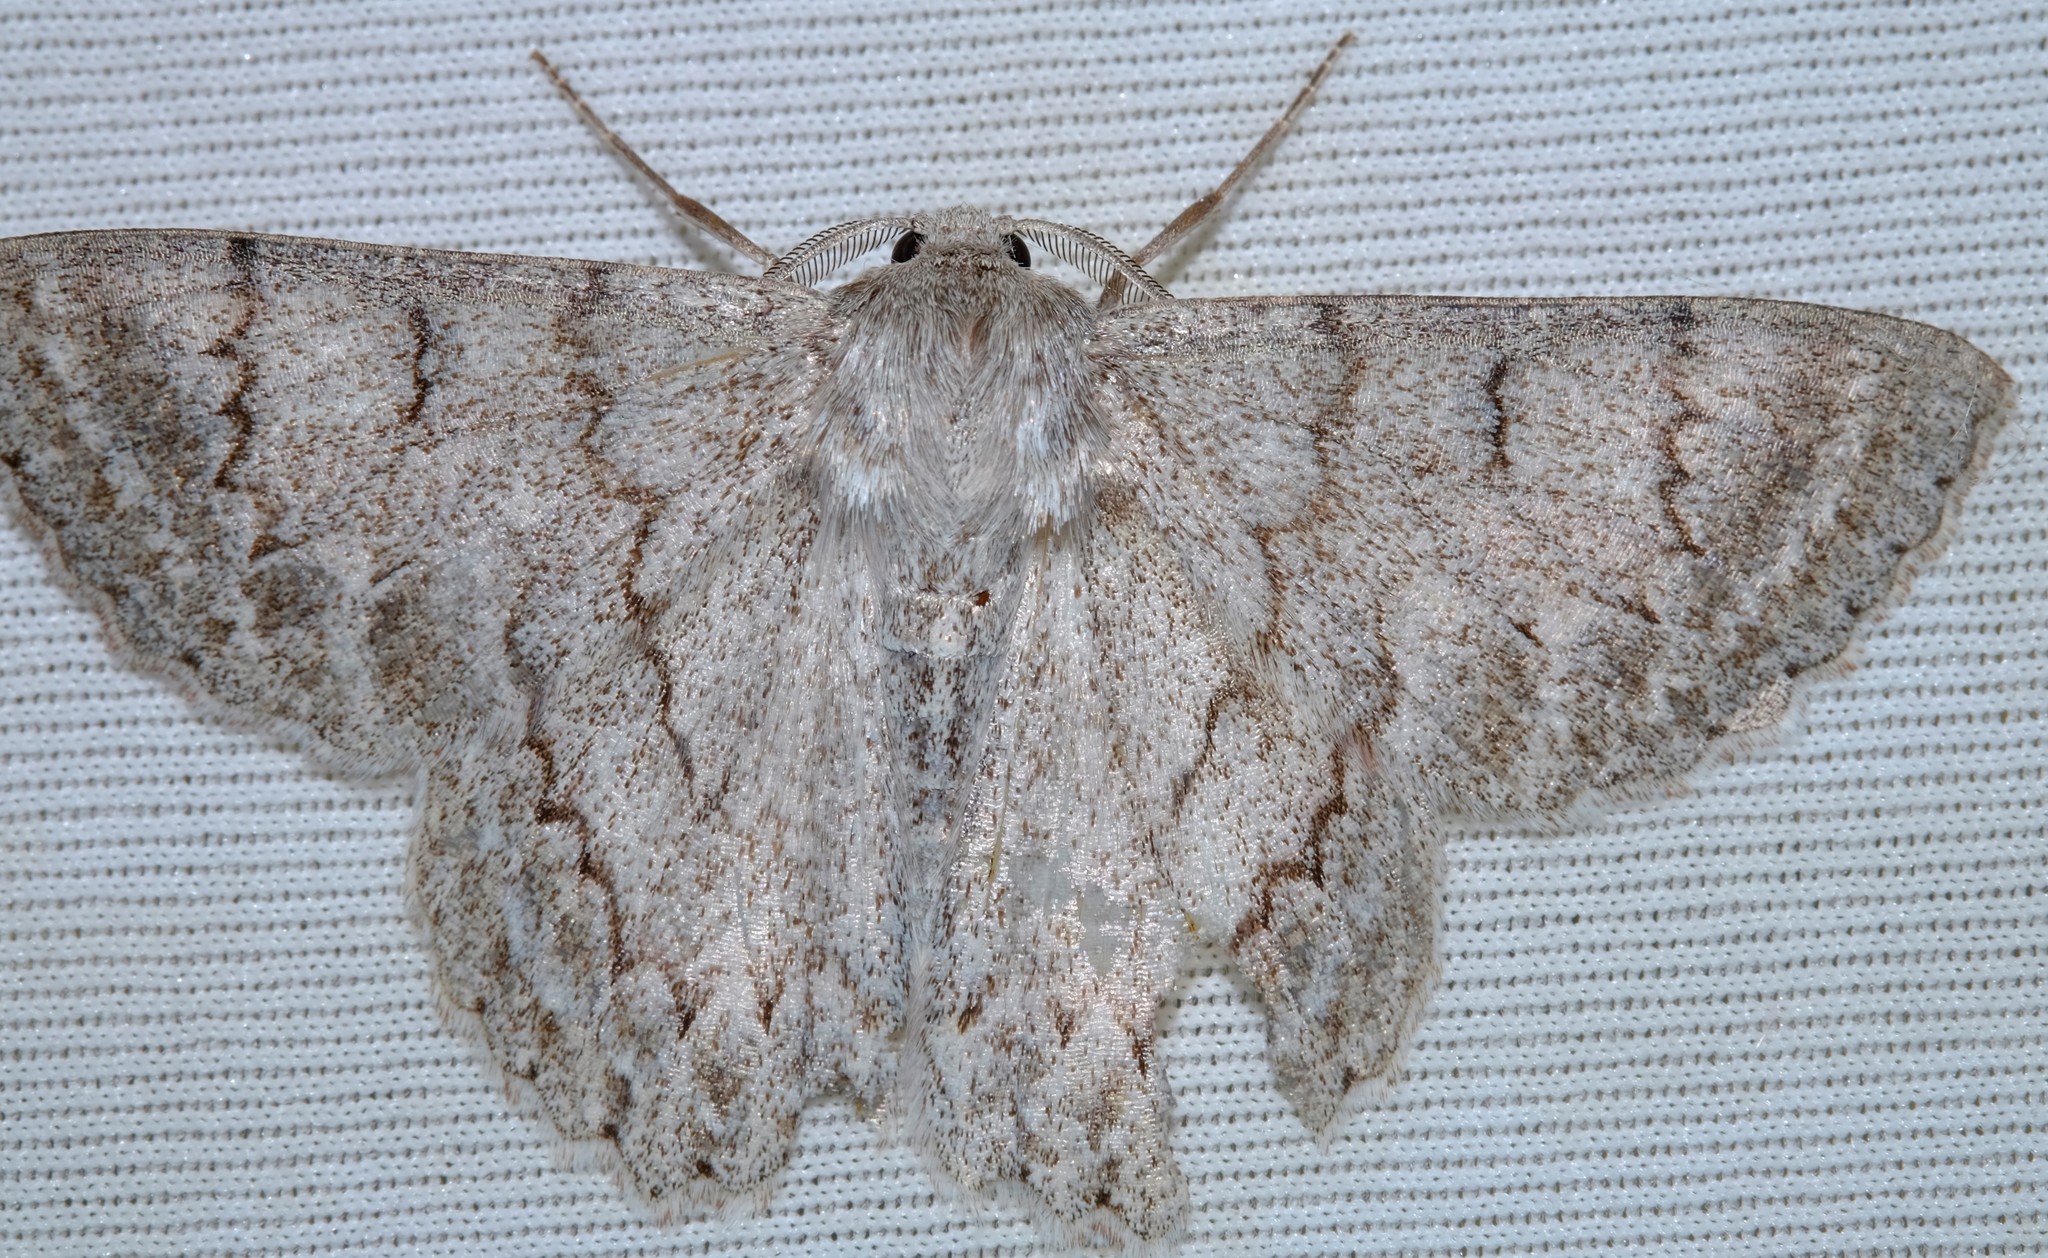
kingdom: Animalia
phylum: Arthropoda
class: Insecta
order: Lepidoptera
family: Geometridae
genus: Crypsiphona
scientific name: Crypsiphona ocultaria
